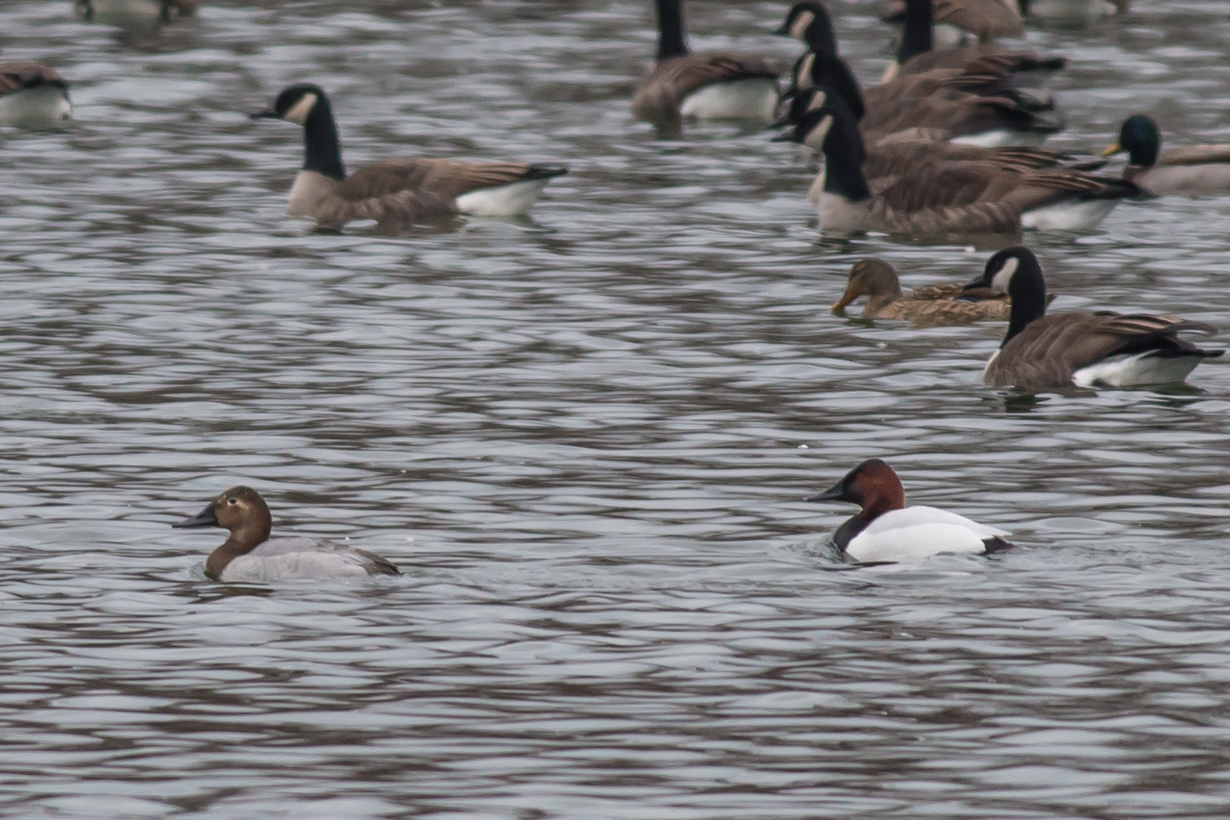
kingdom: Animalia
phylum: Chordata
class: Aves
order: Anseriformes
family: Anatidae
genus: Aythya
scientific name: Aythya valisineria
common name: Canvasback
